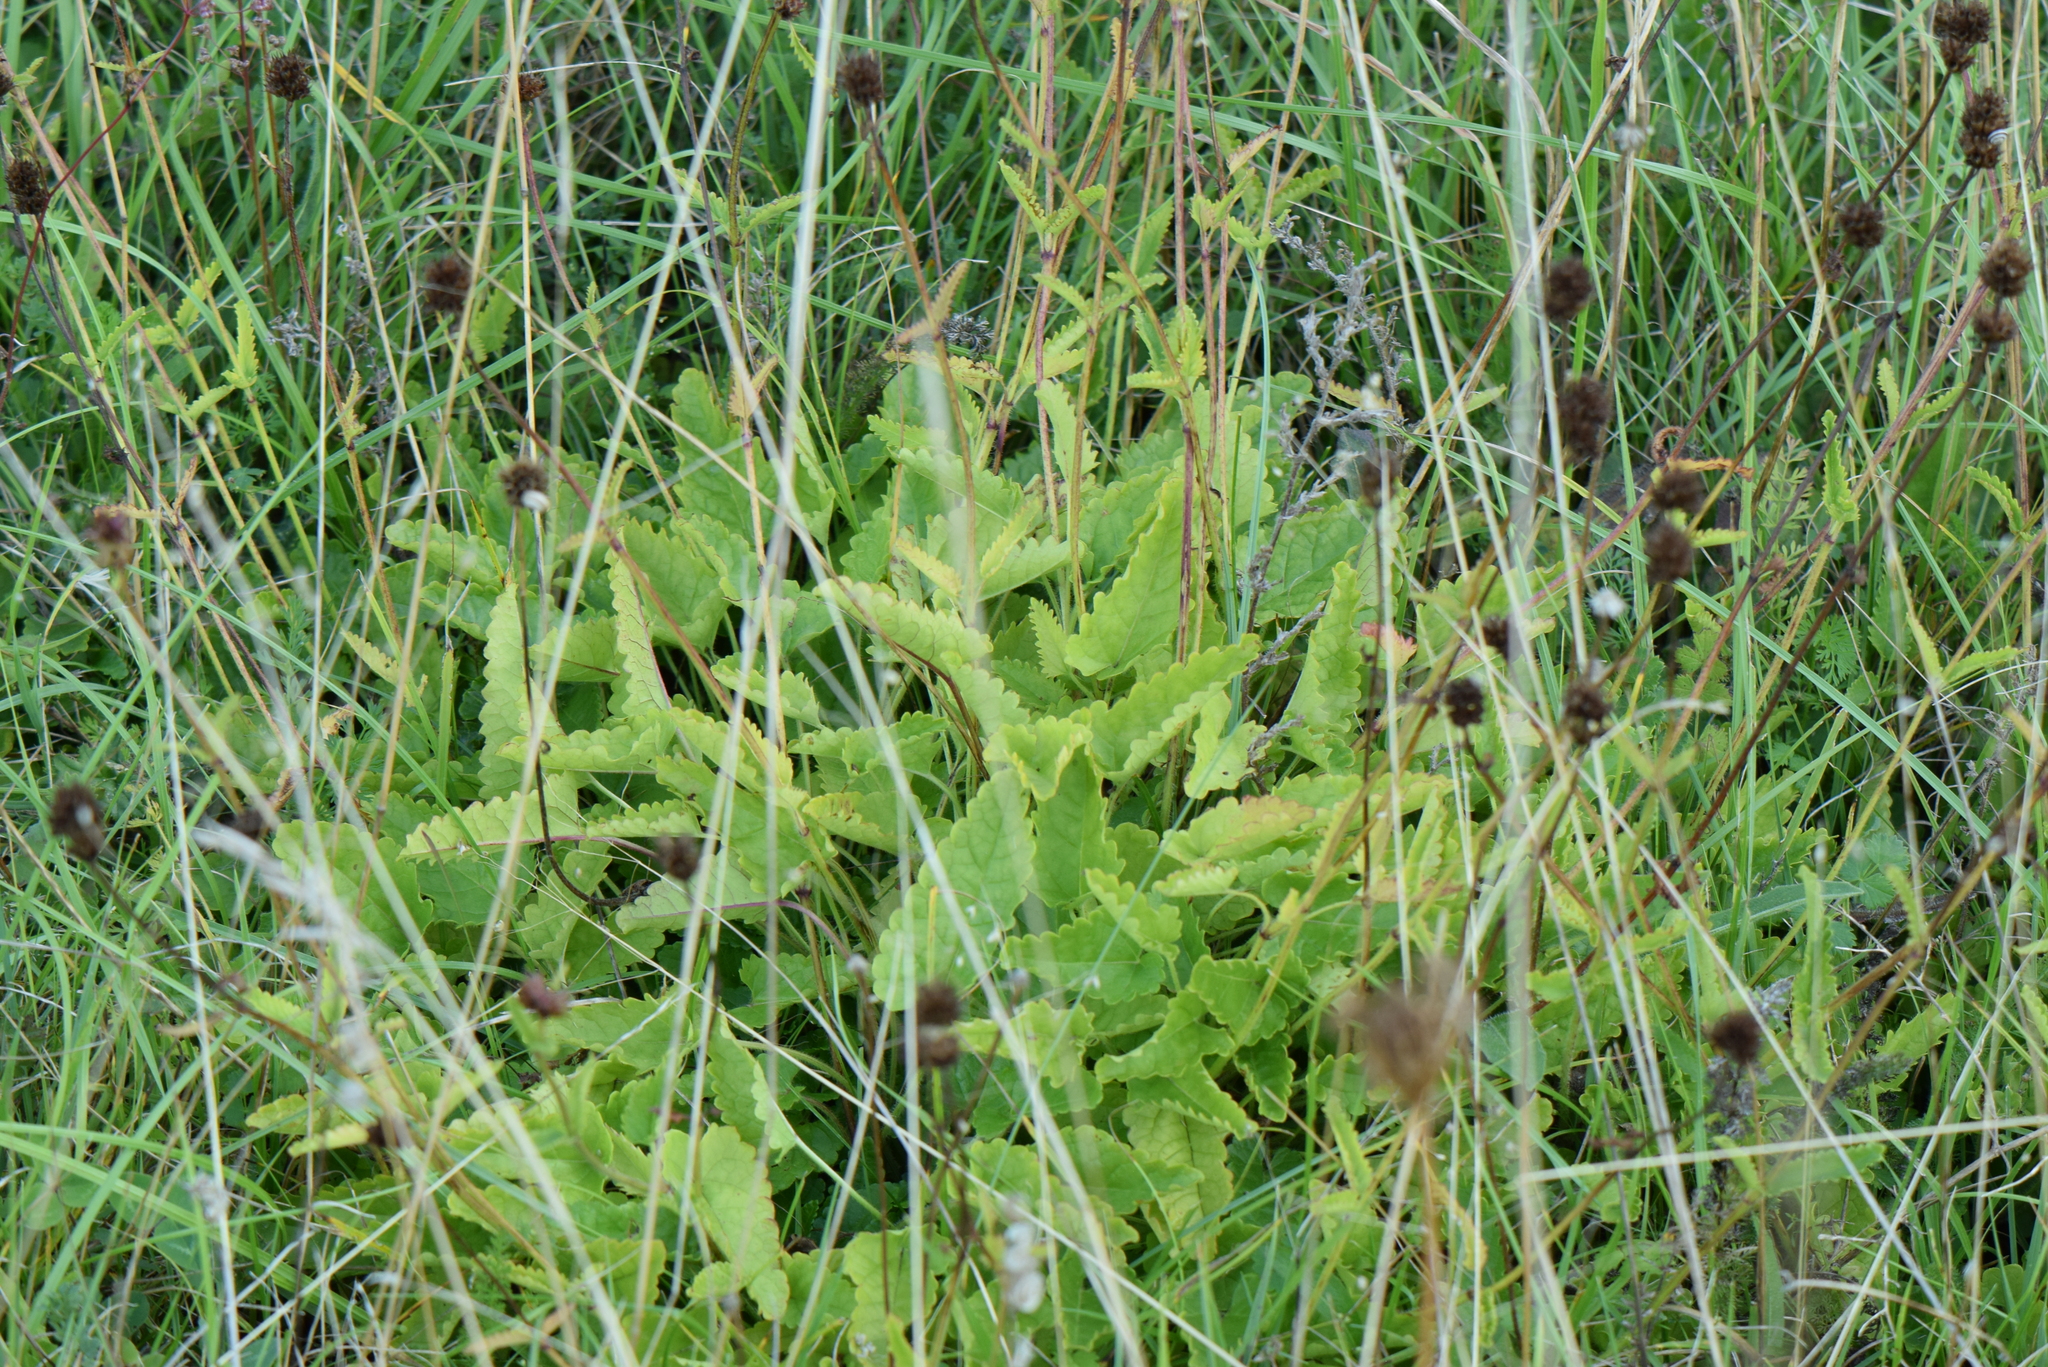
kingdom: Plantae
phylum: Tracheophyta
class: Magnoliopsida
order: Lamiales
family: Lamiaceae
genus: Betonica
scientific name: Betonica officinalis
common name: Bishop's-wort
